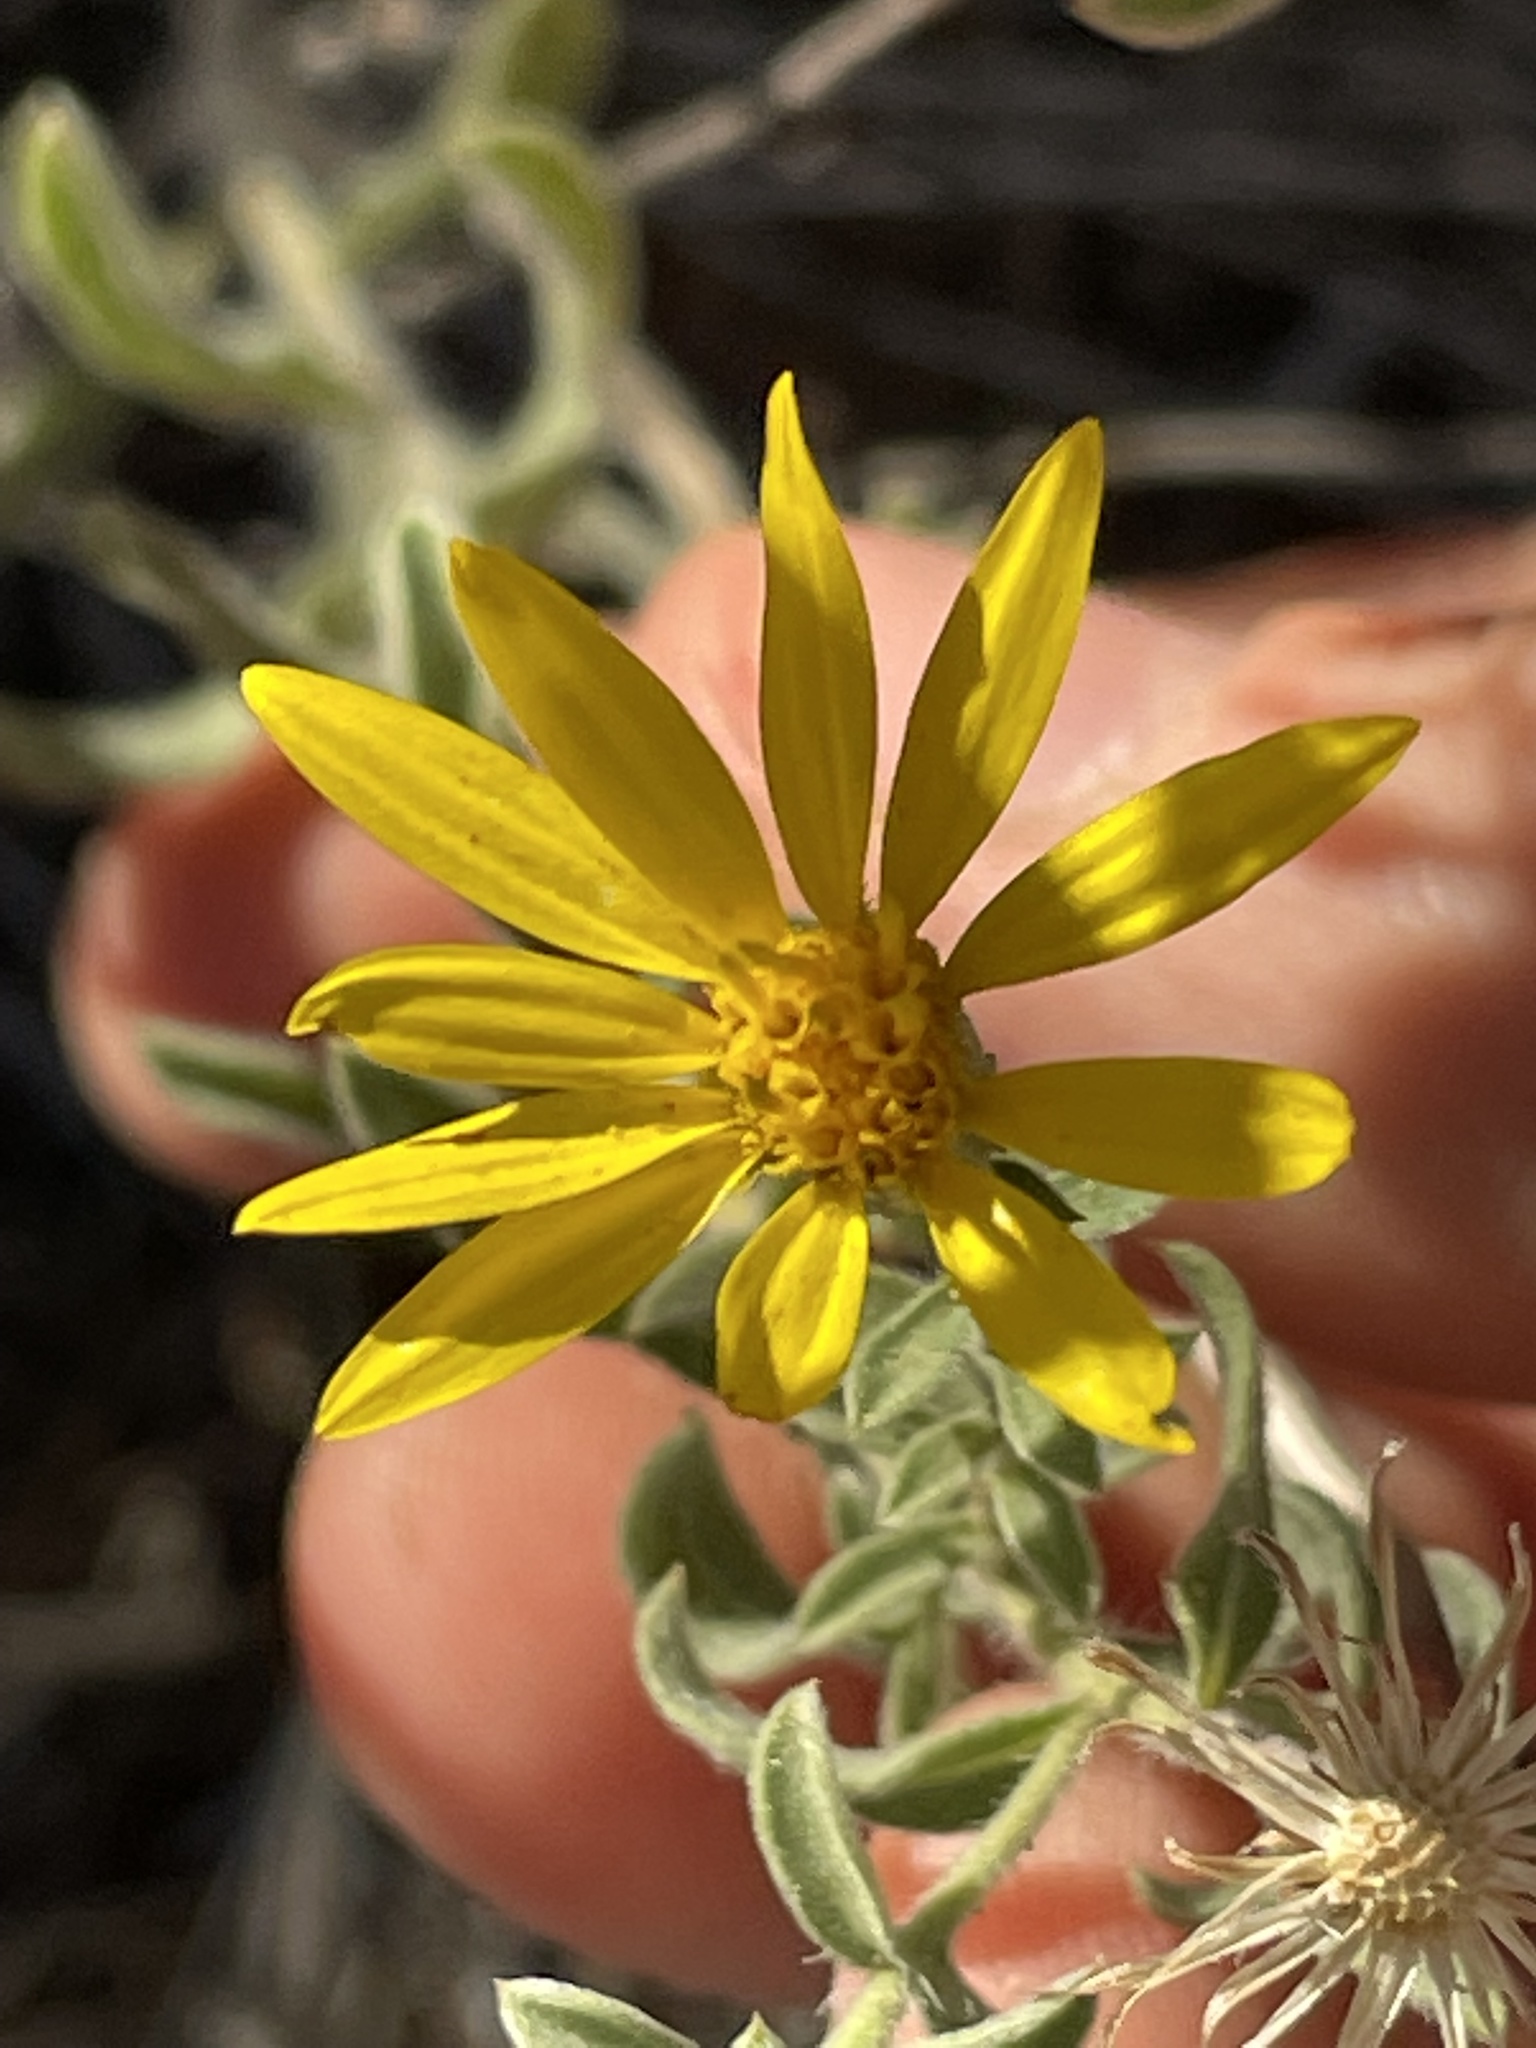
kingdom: Plantae
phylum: Tracheophyta
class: Magnoliopsida
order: Asterales
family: Asteraceae
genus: Heterotheca
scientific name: Heterotheca hirsutissima
